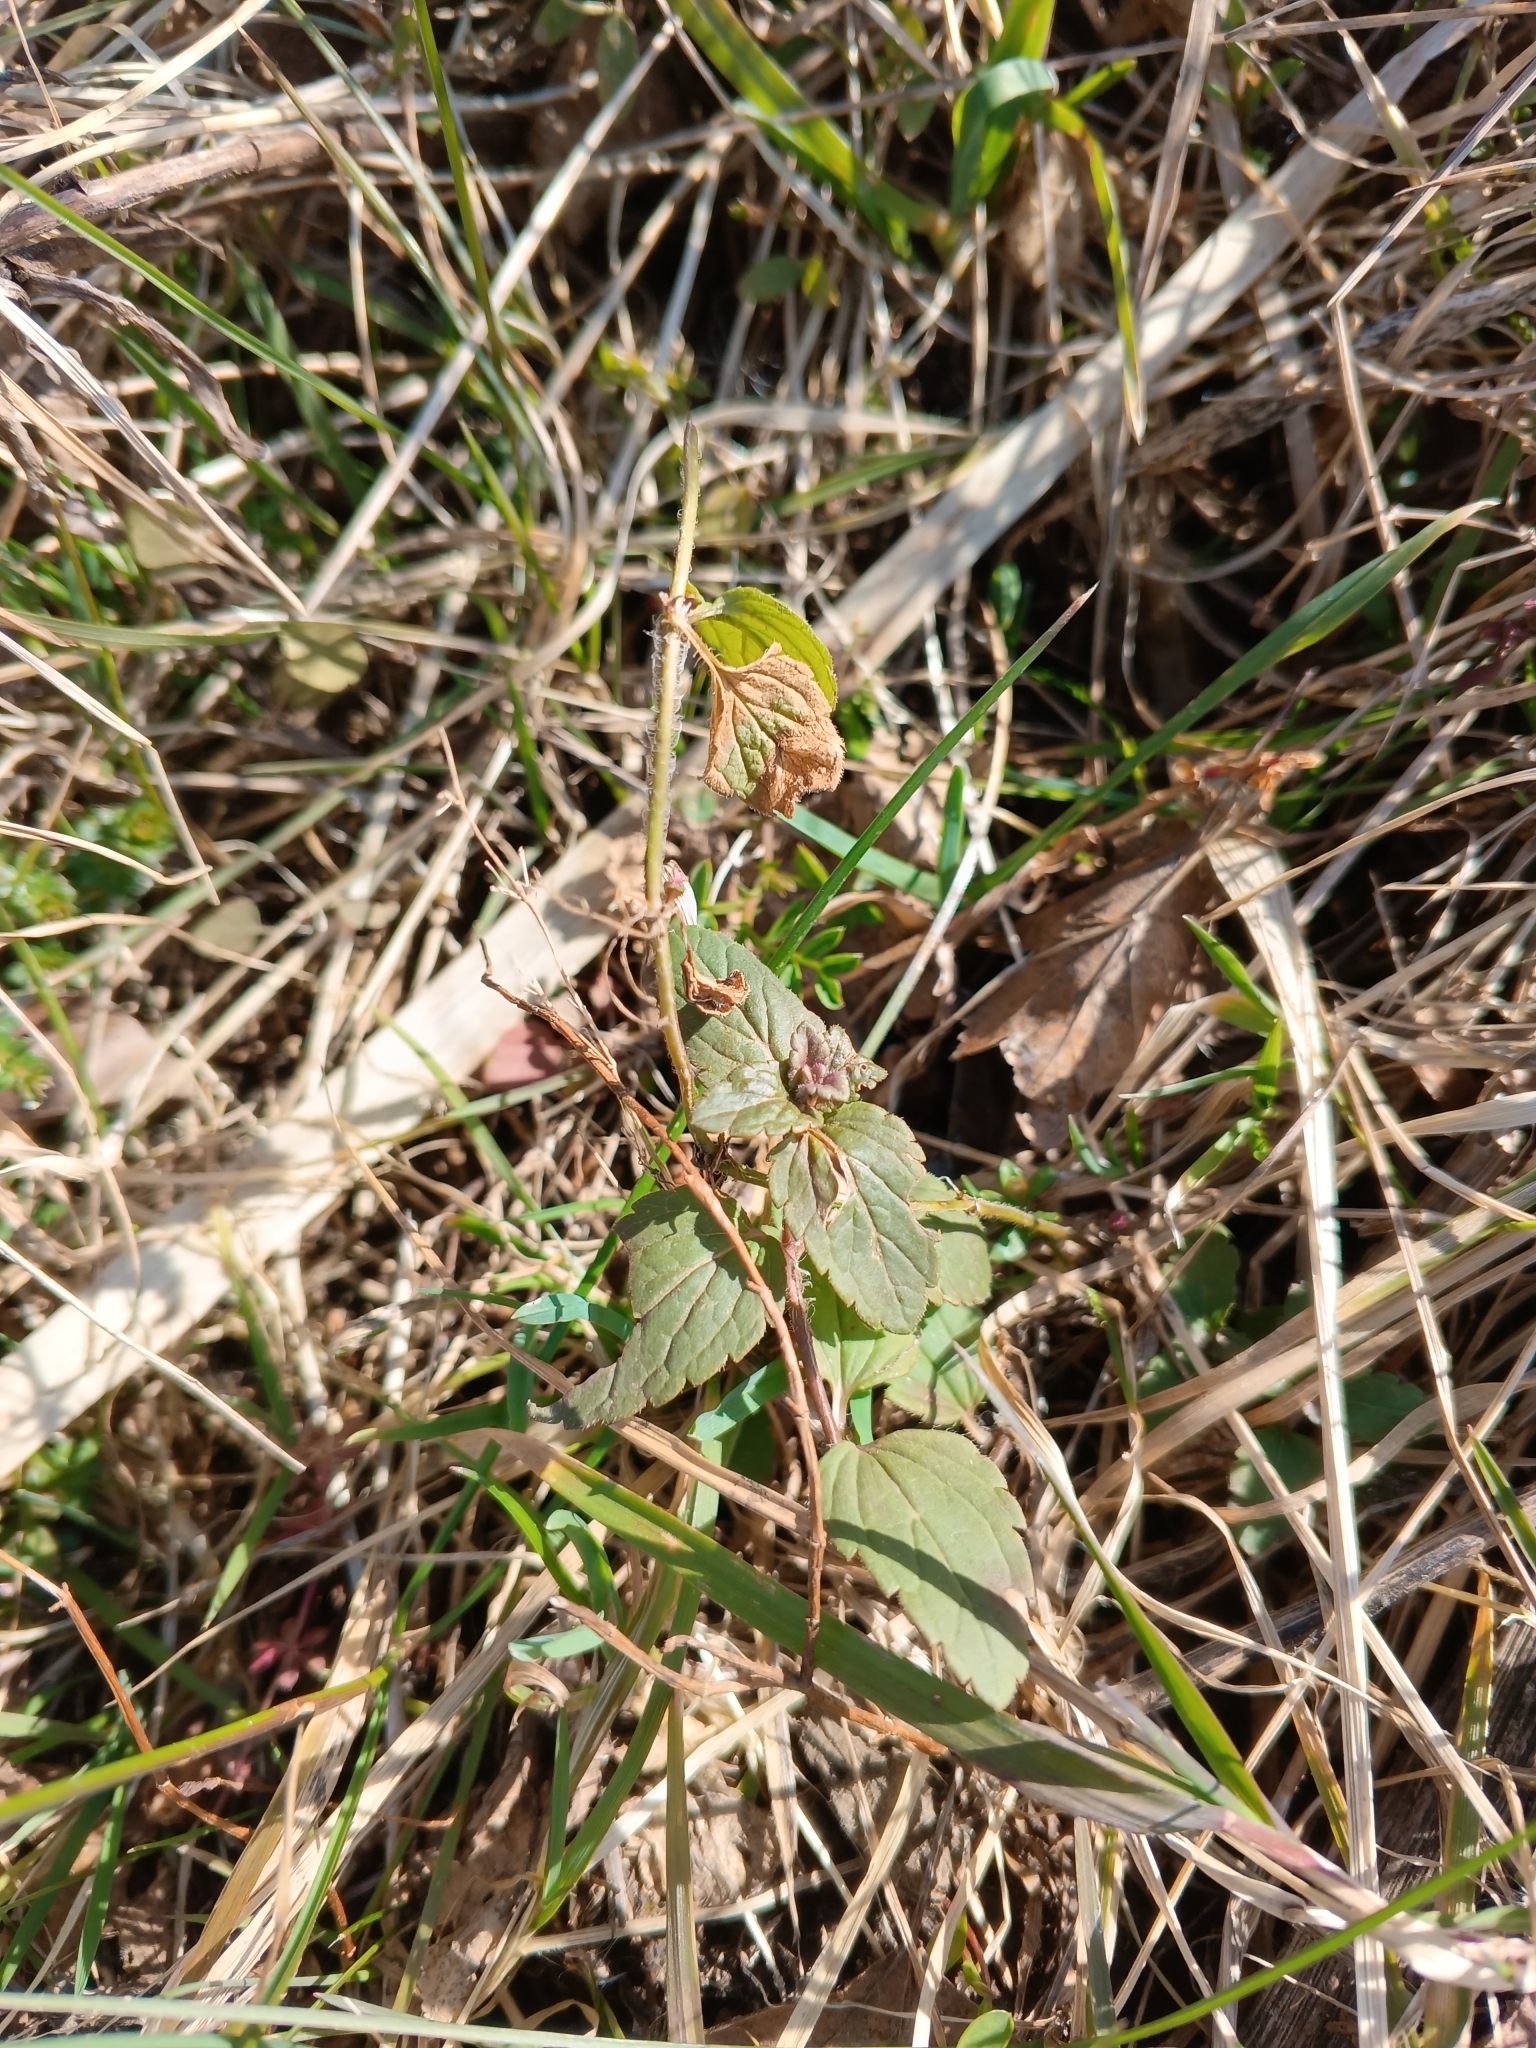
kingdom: Plantae
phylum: Tracheophyta
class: Magnoliopsida
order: Lamiales
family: Plantaginaceae
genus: Veronica
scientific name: Veronica chamaedrys
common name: Germander speedwell
